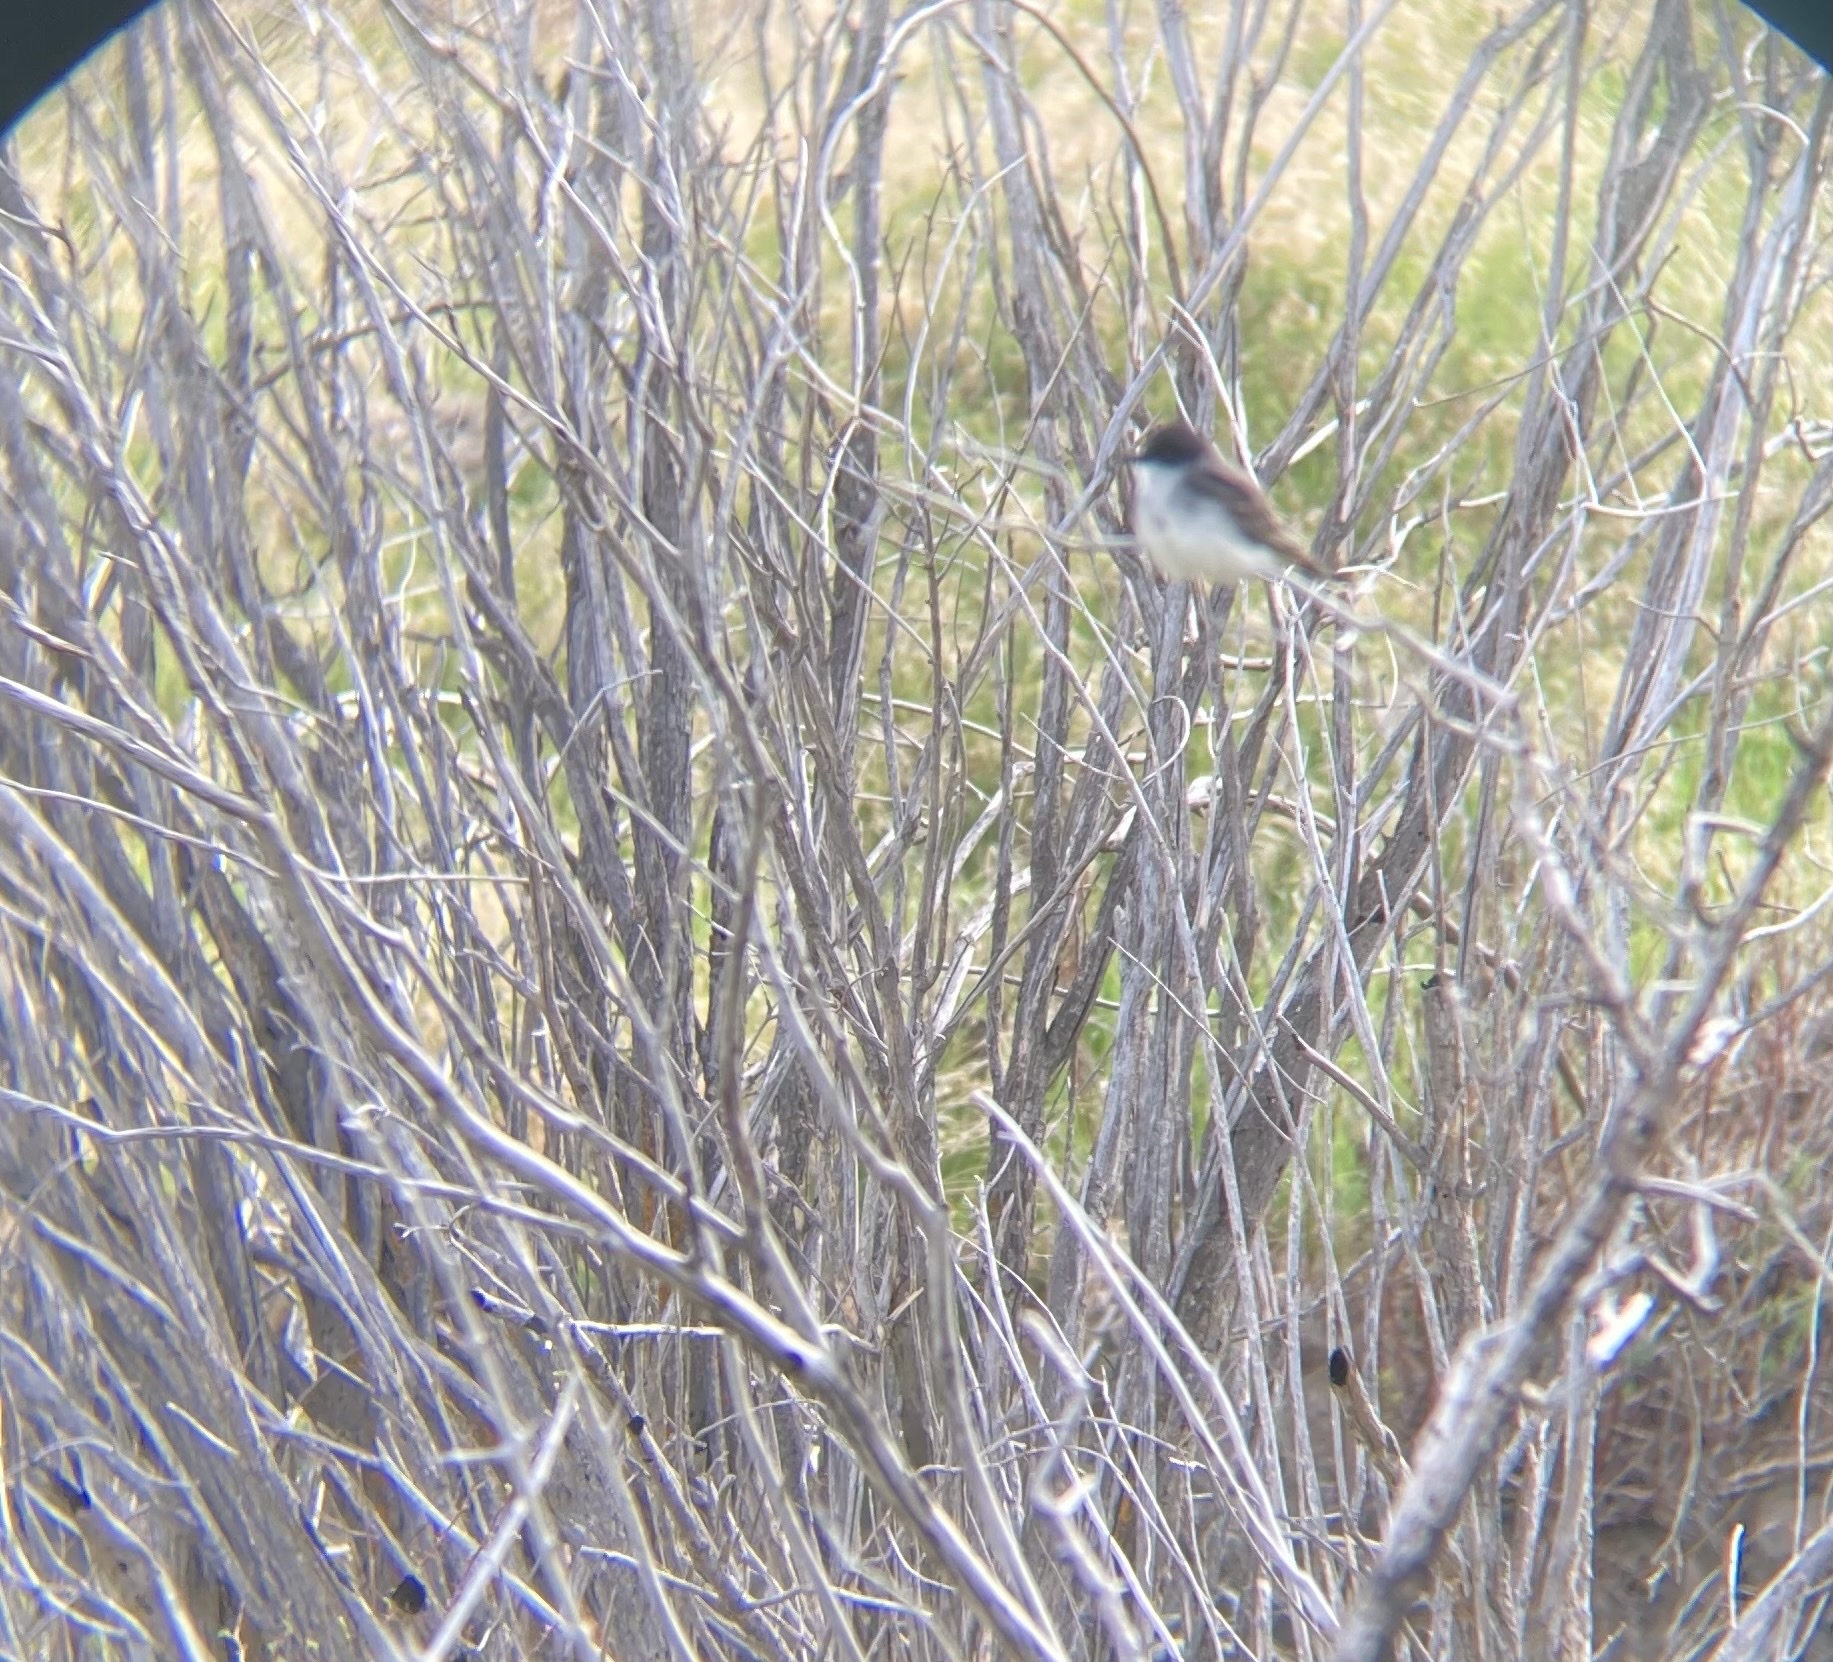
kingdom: Animalia
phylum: Chordata
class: Aves
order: Passeriformes
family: Tyrannidae
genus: Tyrannus
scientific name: Tyrannus tyrannus
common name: Eastern kingbird
